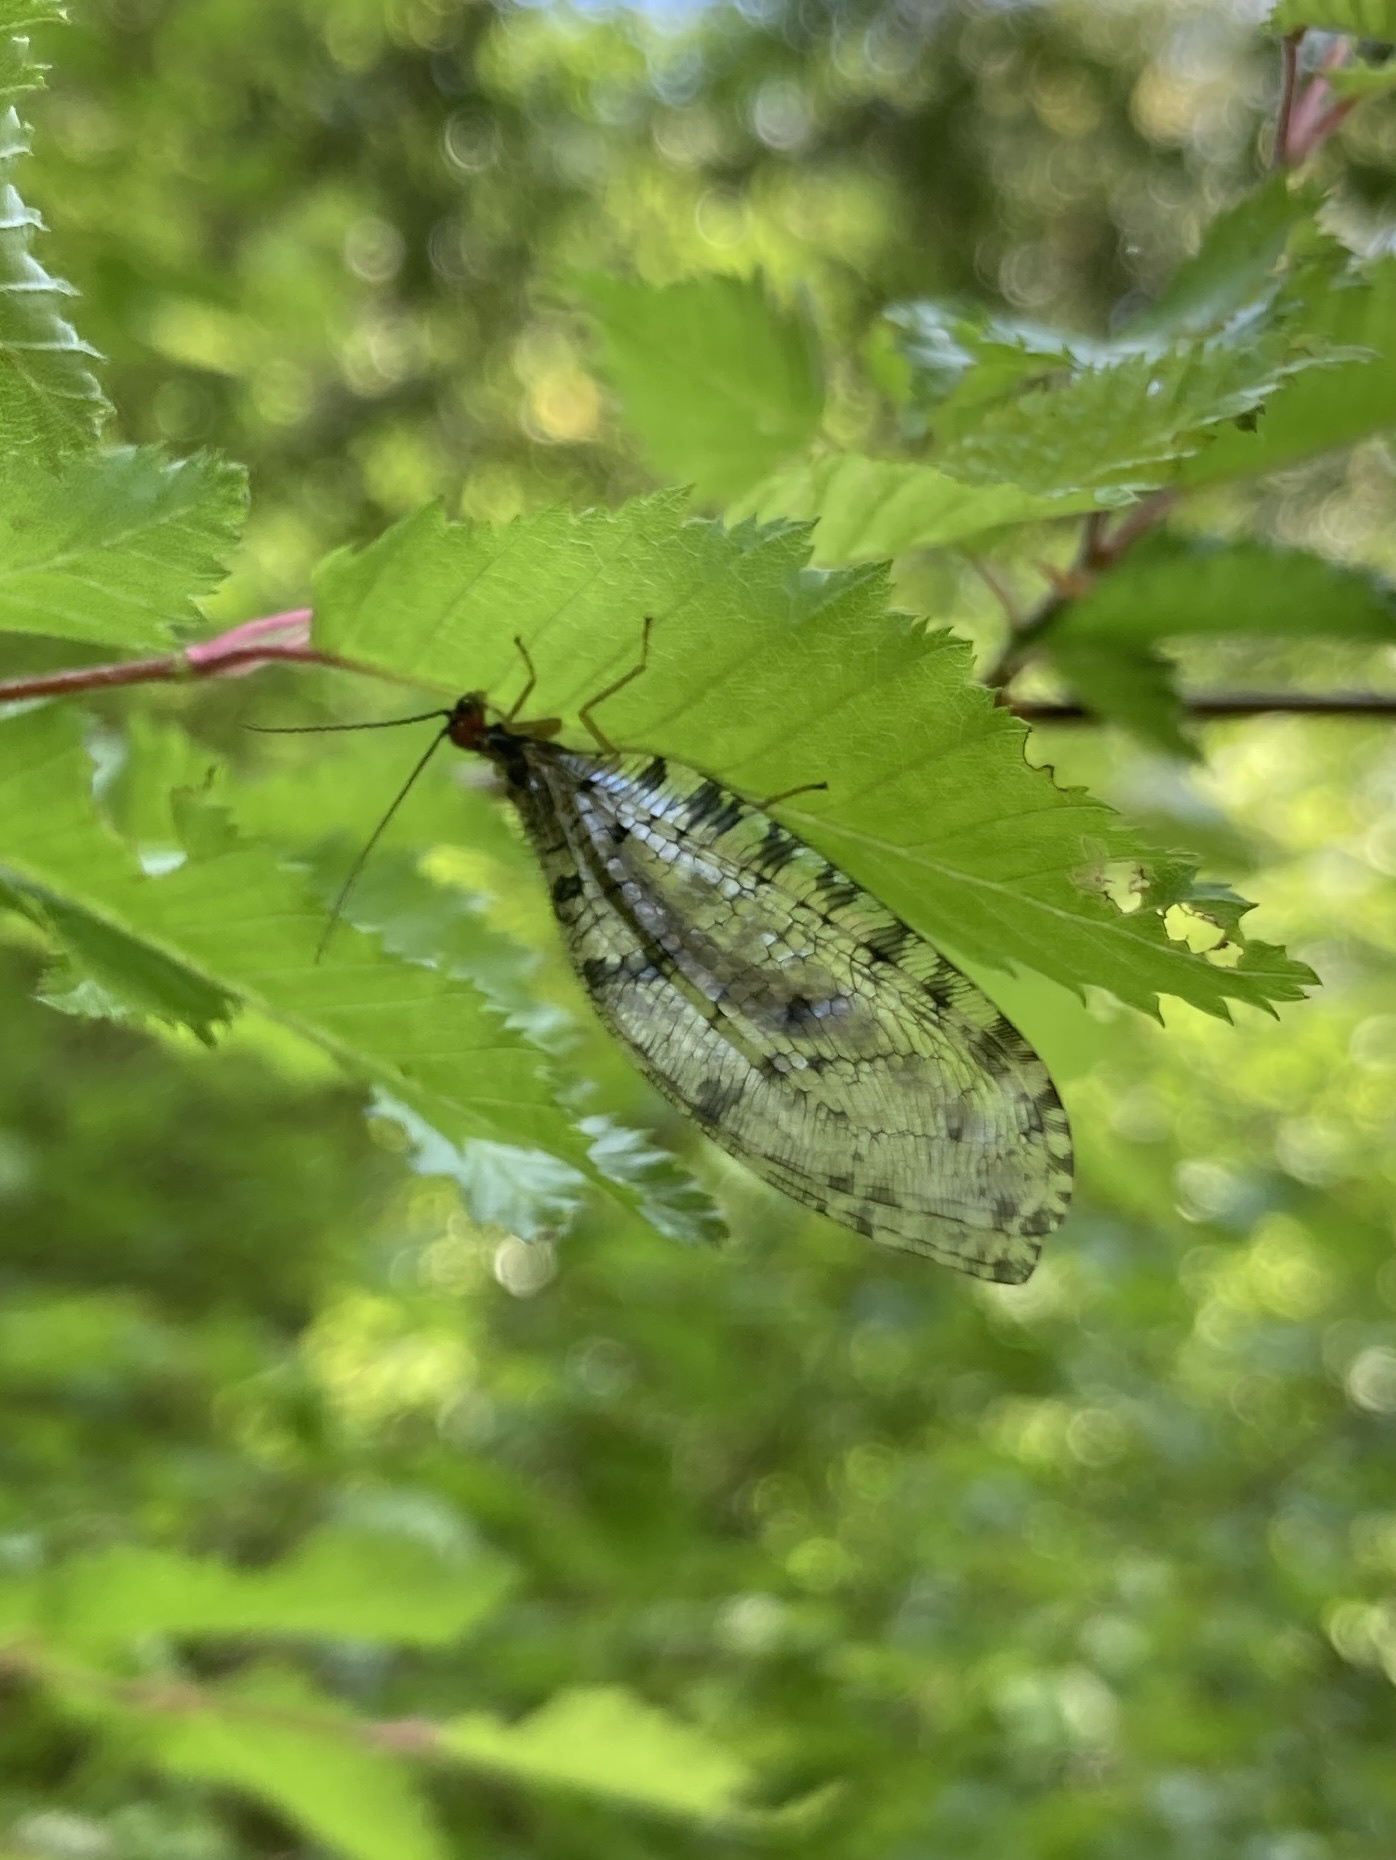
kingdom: Animalia
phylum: Arthropoda
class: Insecta
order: Neuroptera
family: Osmylidae
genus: Osmylus
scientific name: Osmylus fulvicephalus
